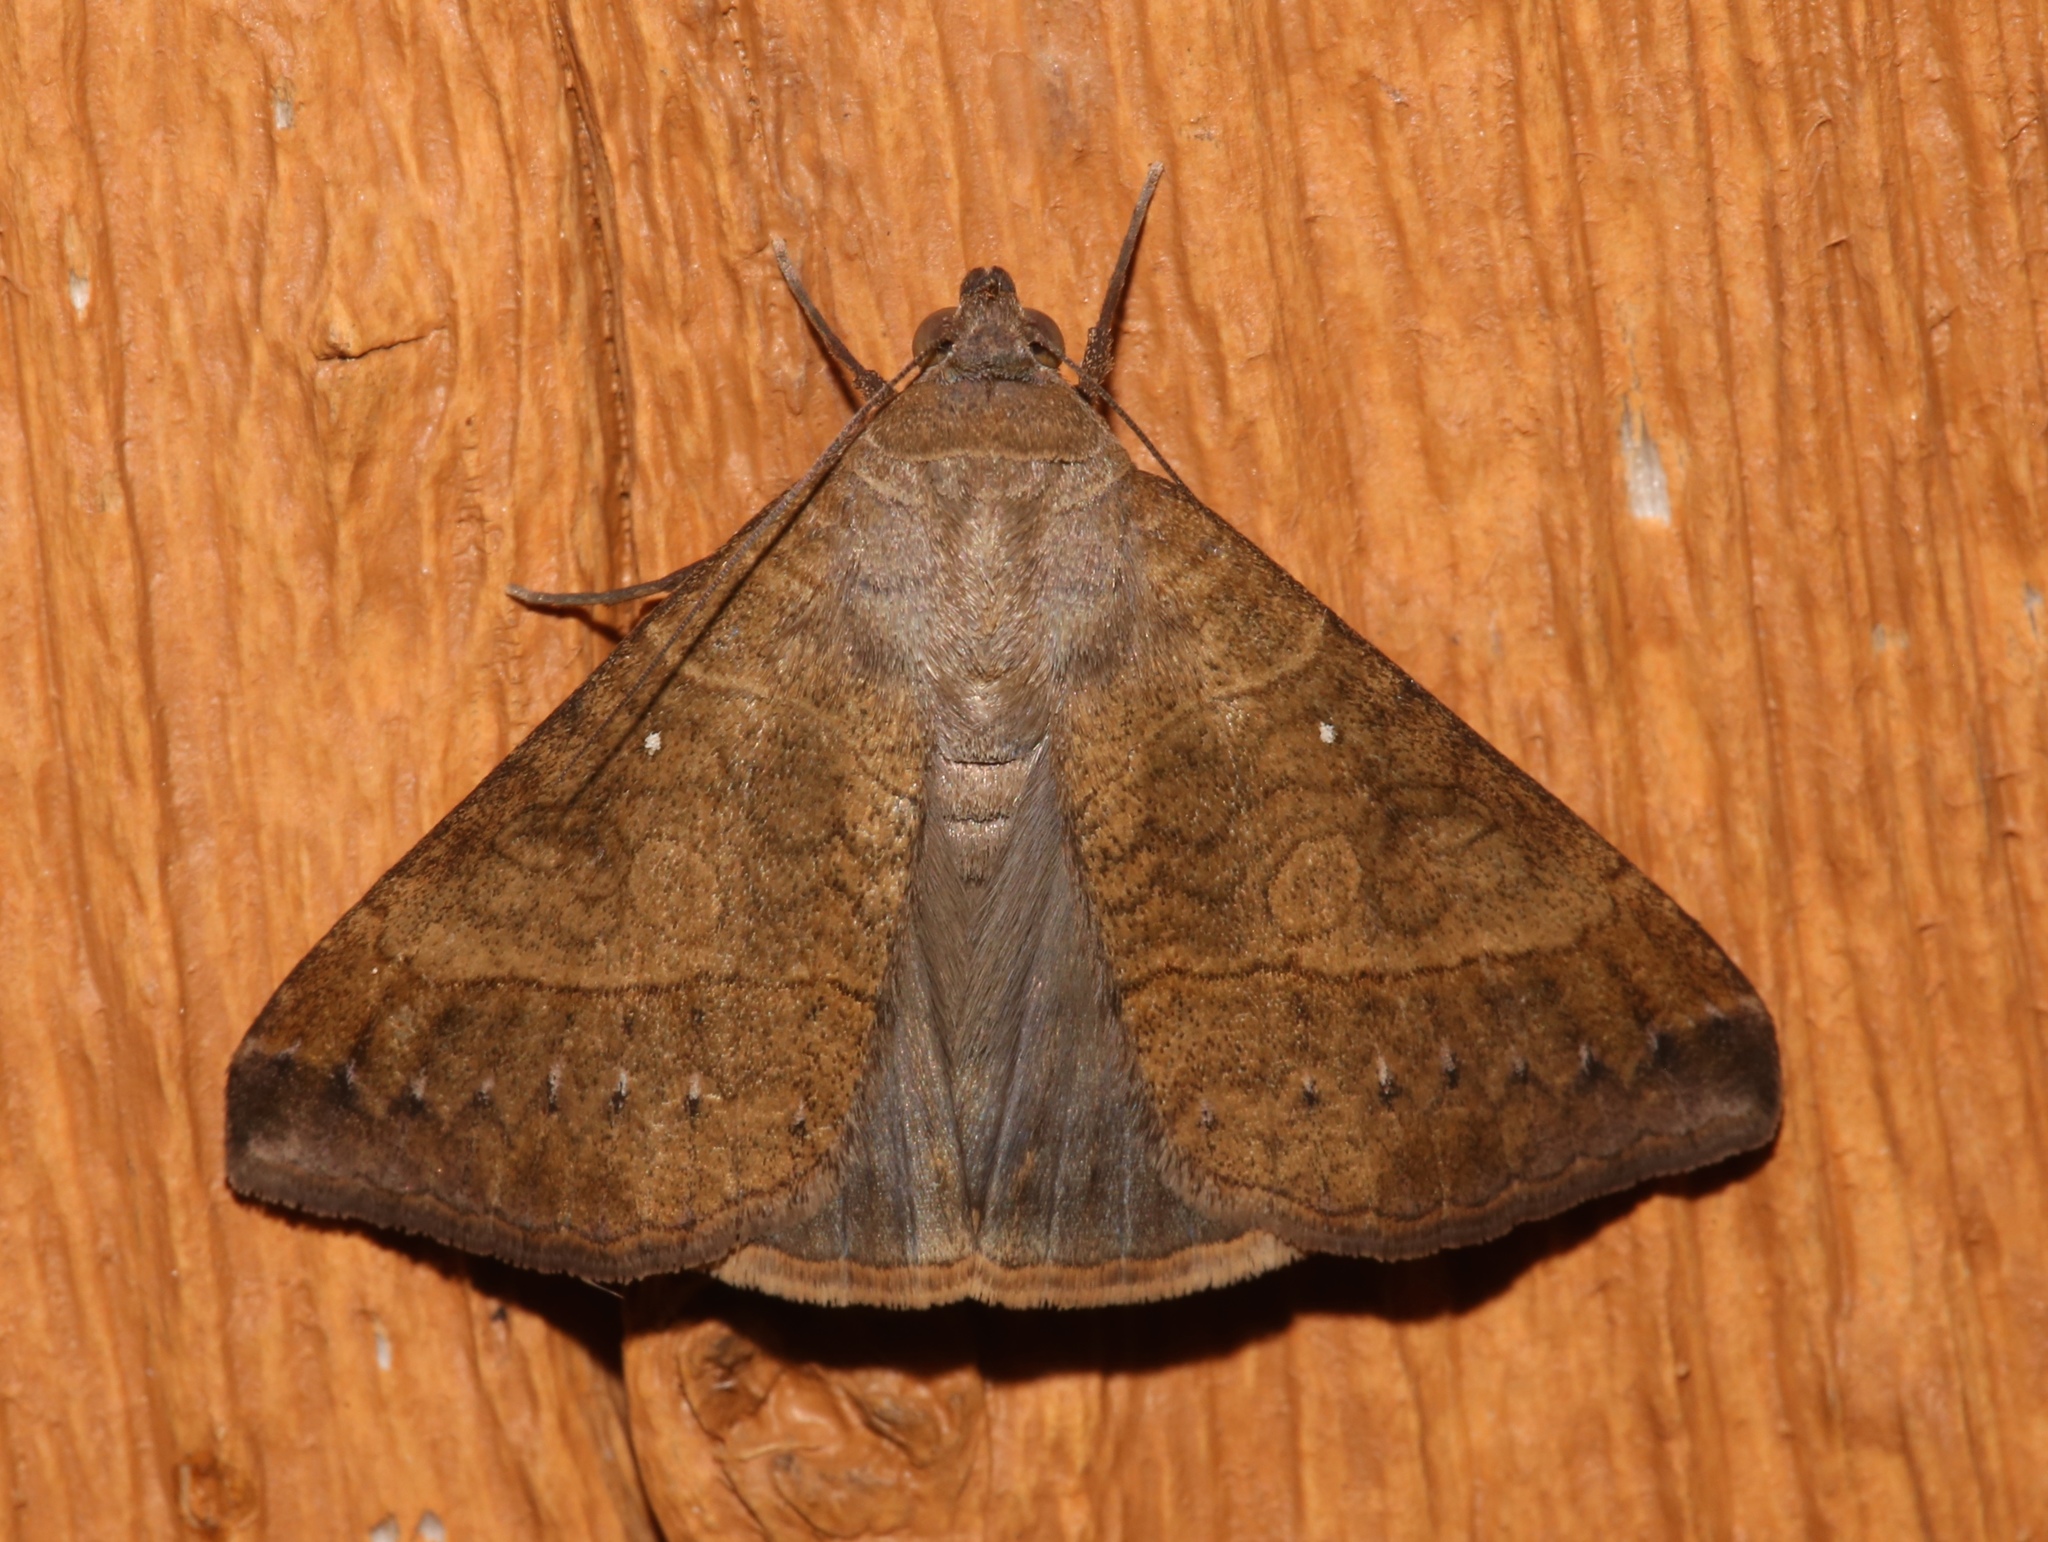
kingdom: Animalia
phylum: Arthropoda
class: Insecta
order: Lepidoptera
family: Erebidae
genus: Mocis
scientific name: Mocis latipes
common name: Striped grass looper
